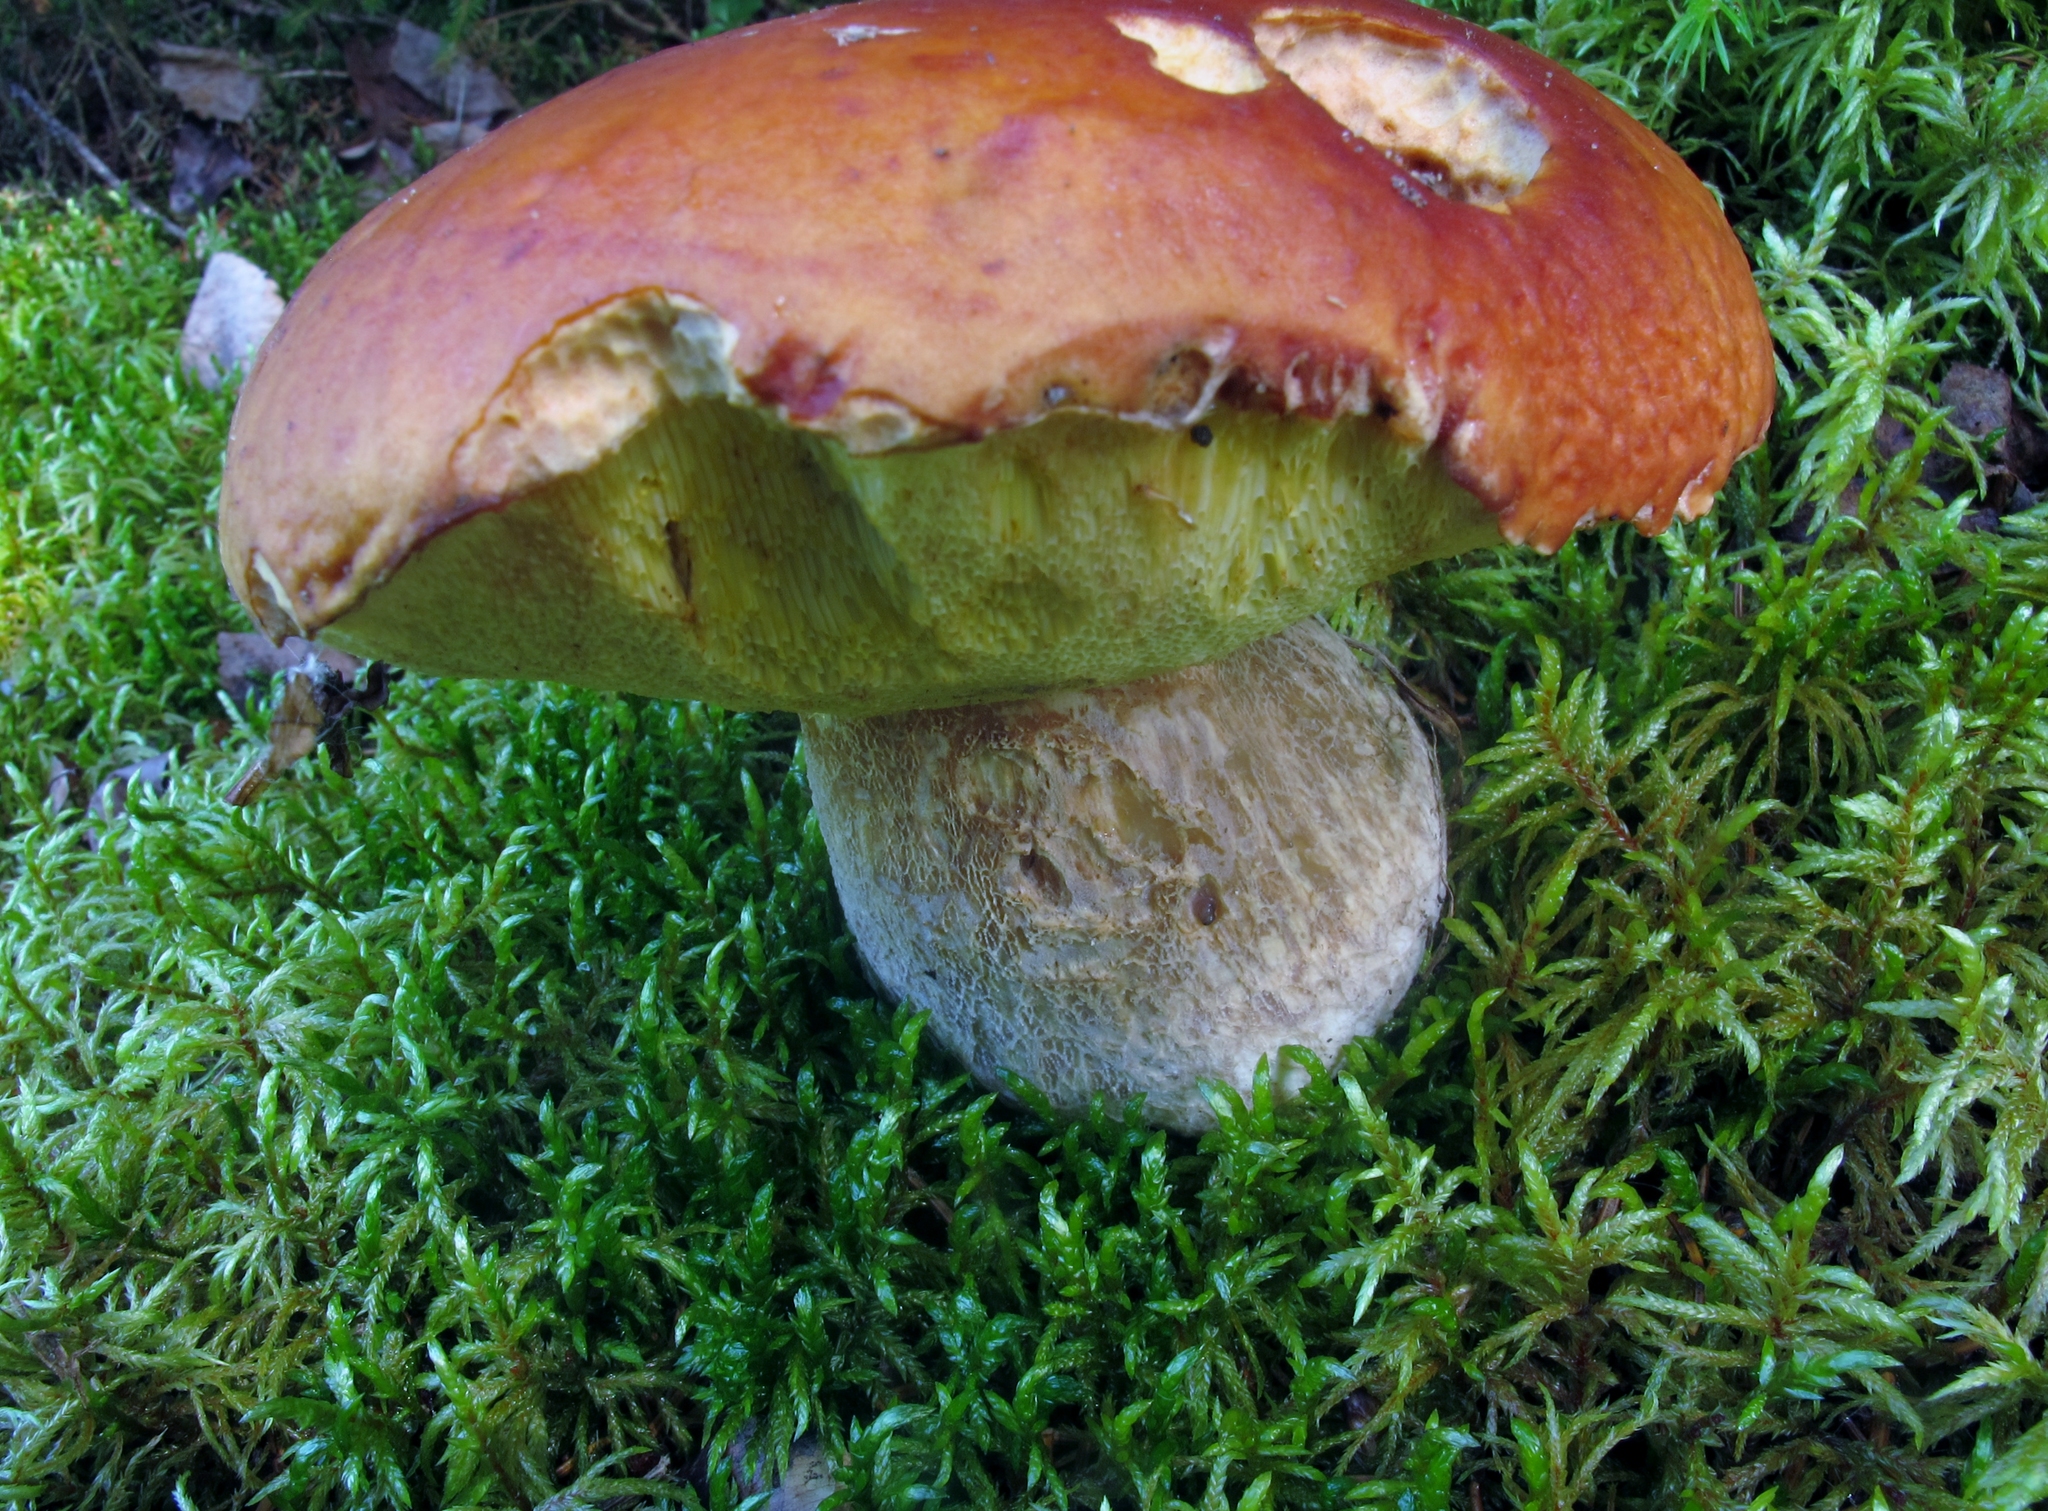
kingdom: Fungi
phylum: Basidiomycota
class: Agaricomycetes
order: Boletales
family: Boletaceae
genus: Boletus
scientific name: Boletus edulis
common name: Cep
